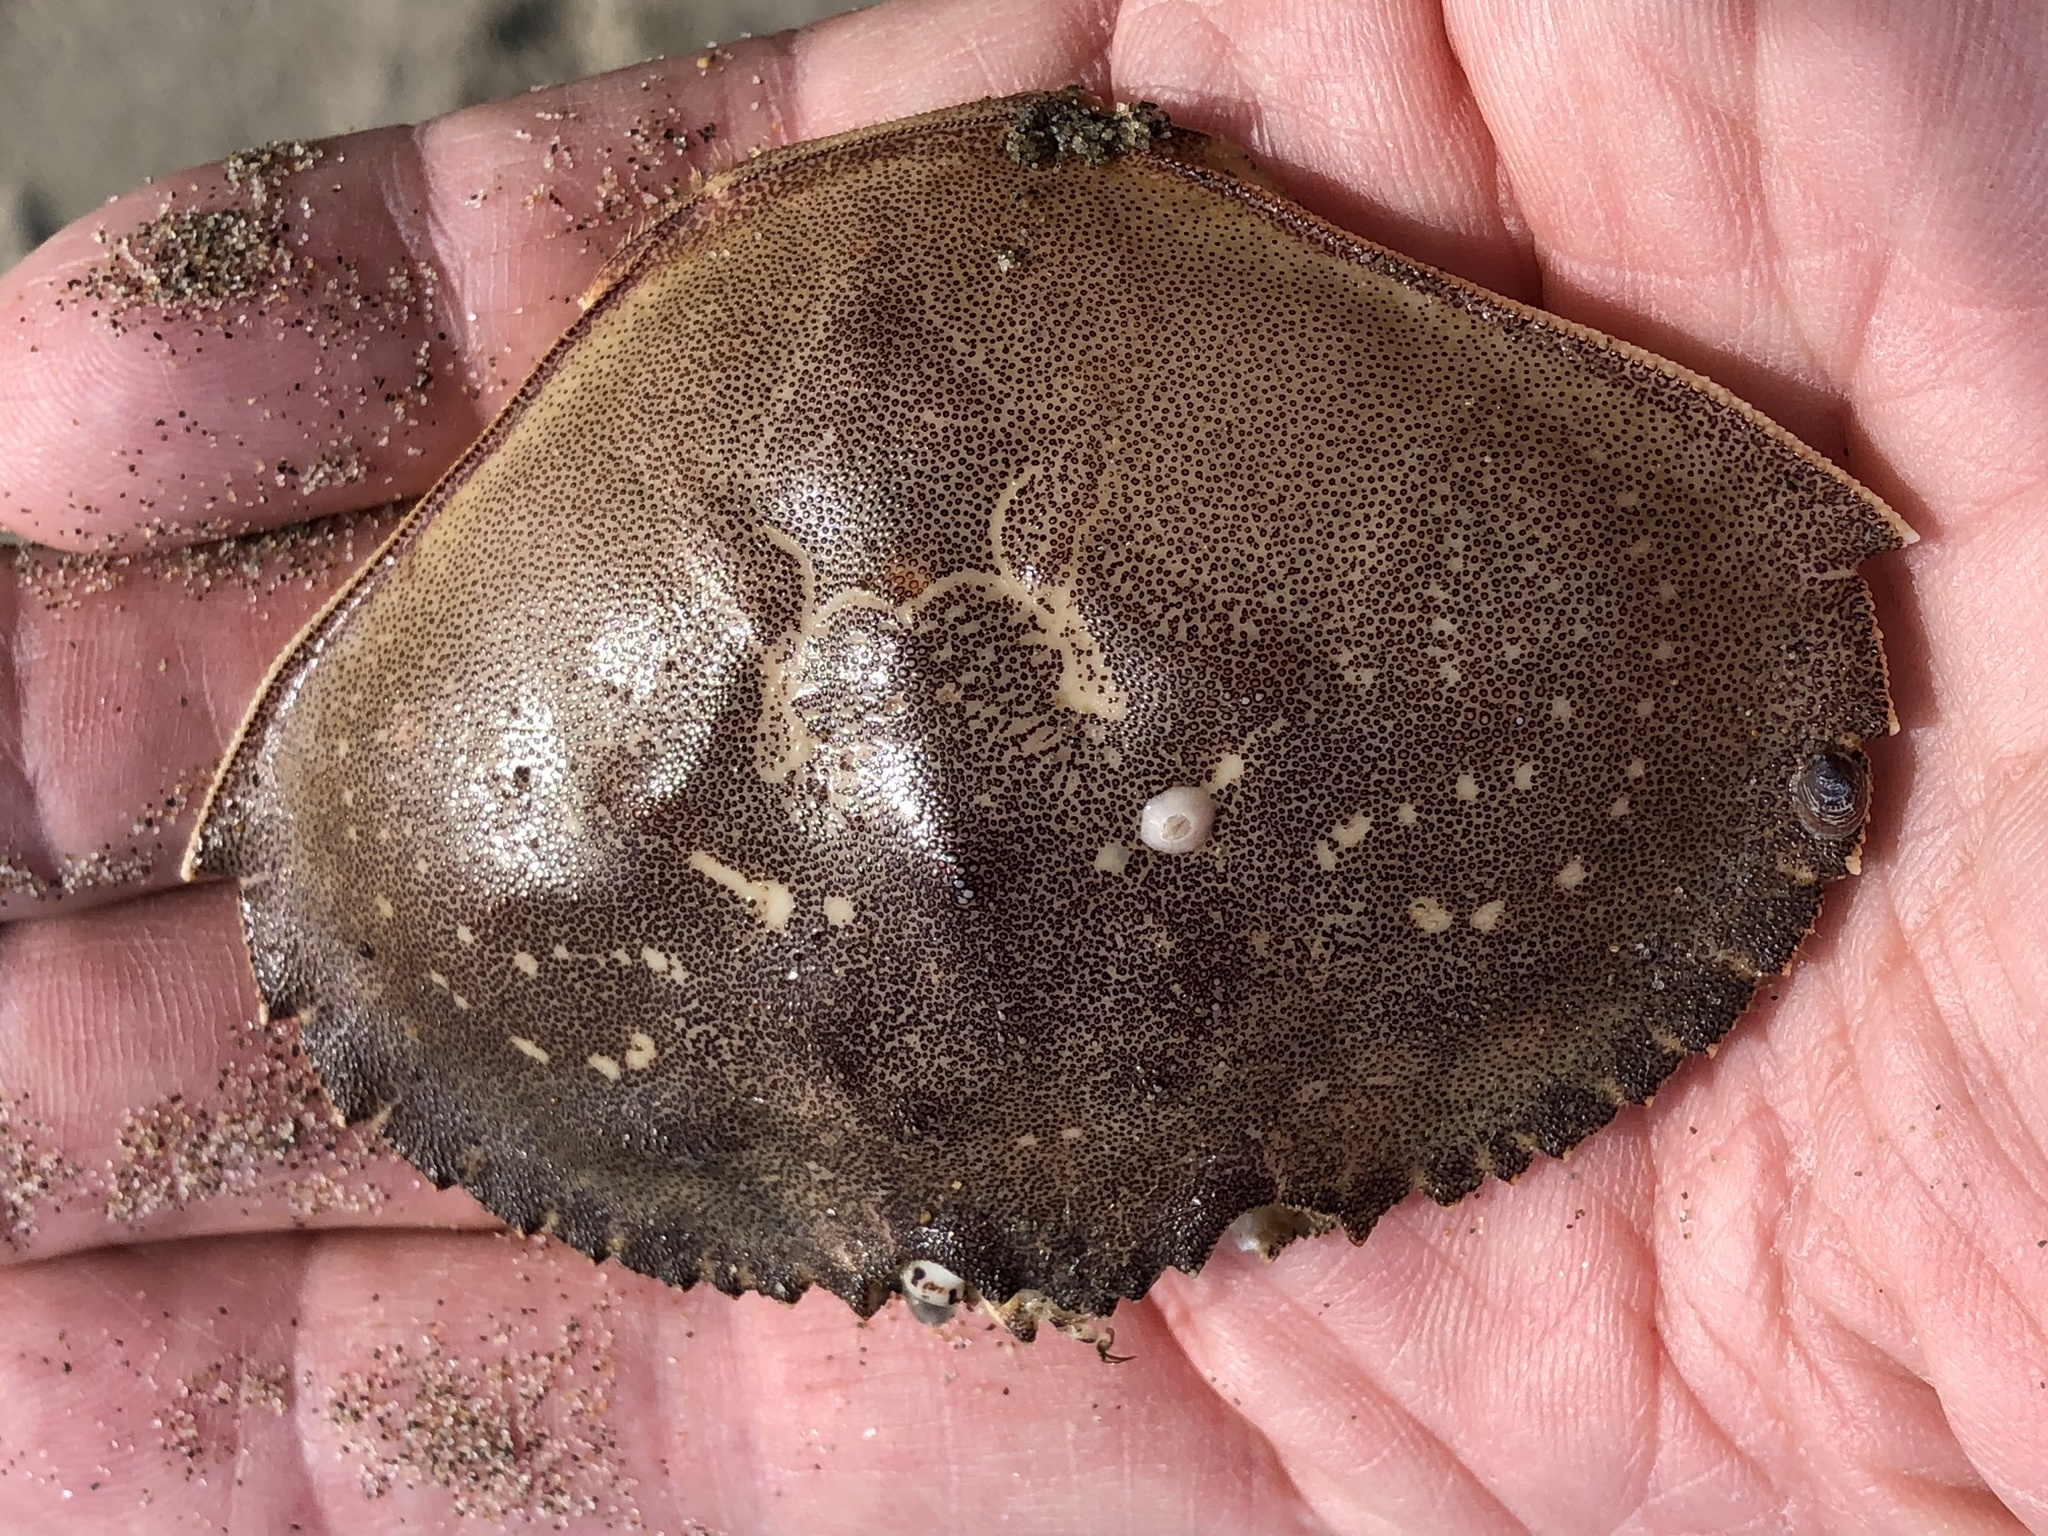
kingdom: Animalia
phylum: Arthropoda
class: Malacostraca
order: Decapoda
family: Cancridae
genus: Metacarcinus
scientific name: Metacarcinus magister
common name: Californian crab
